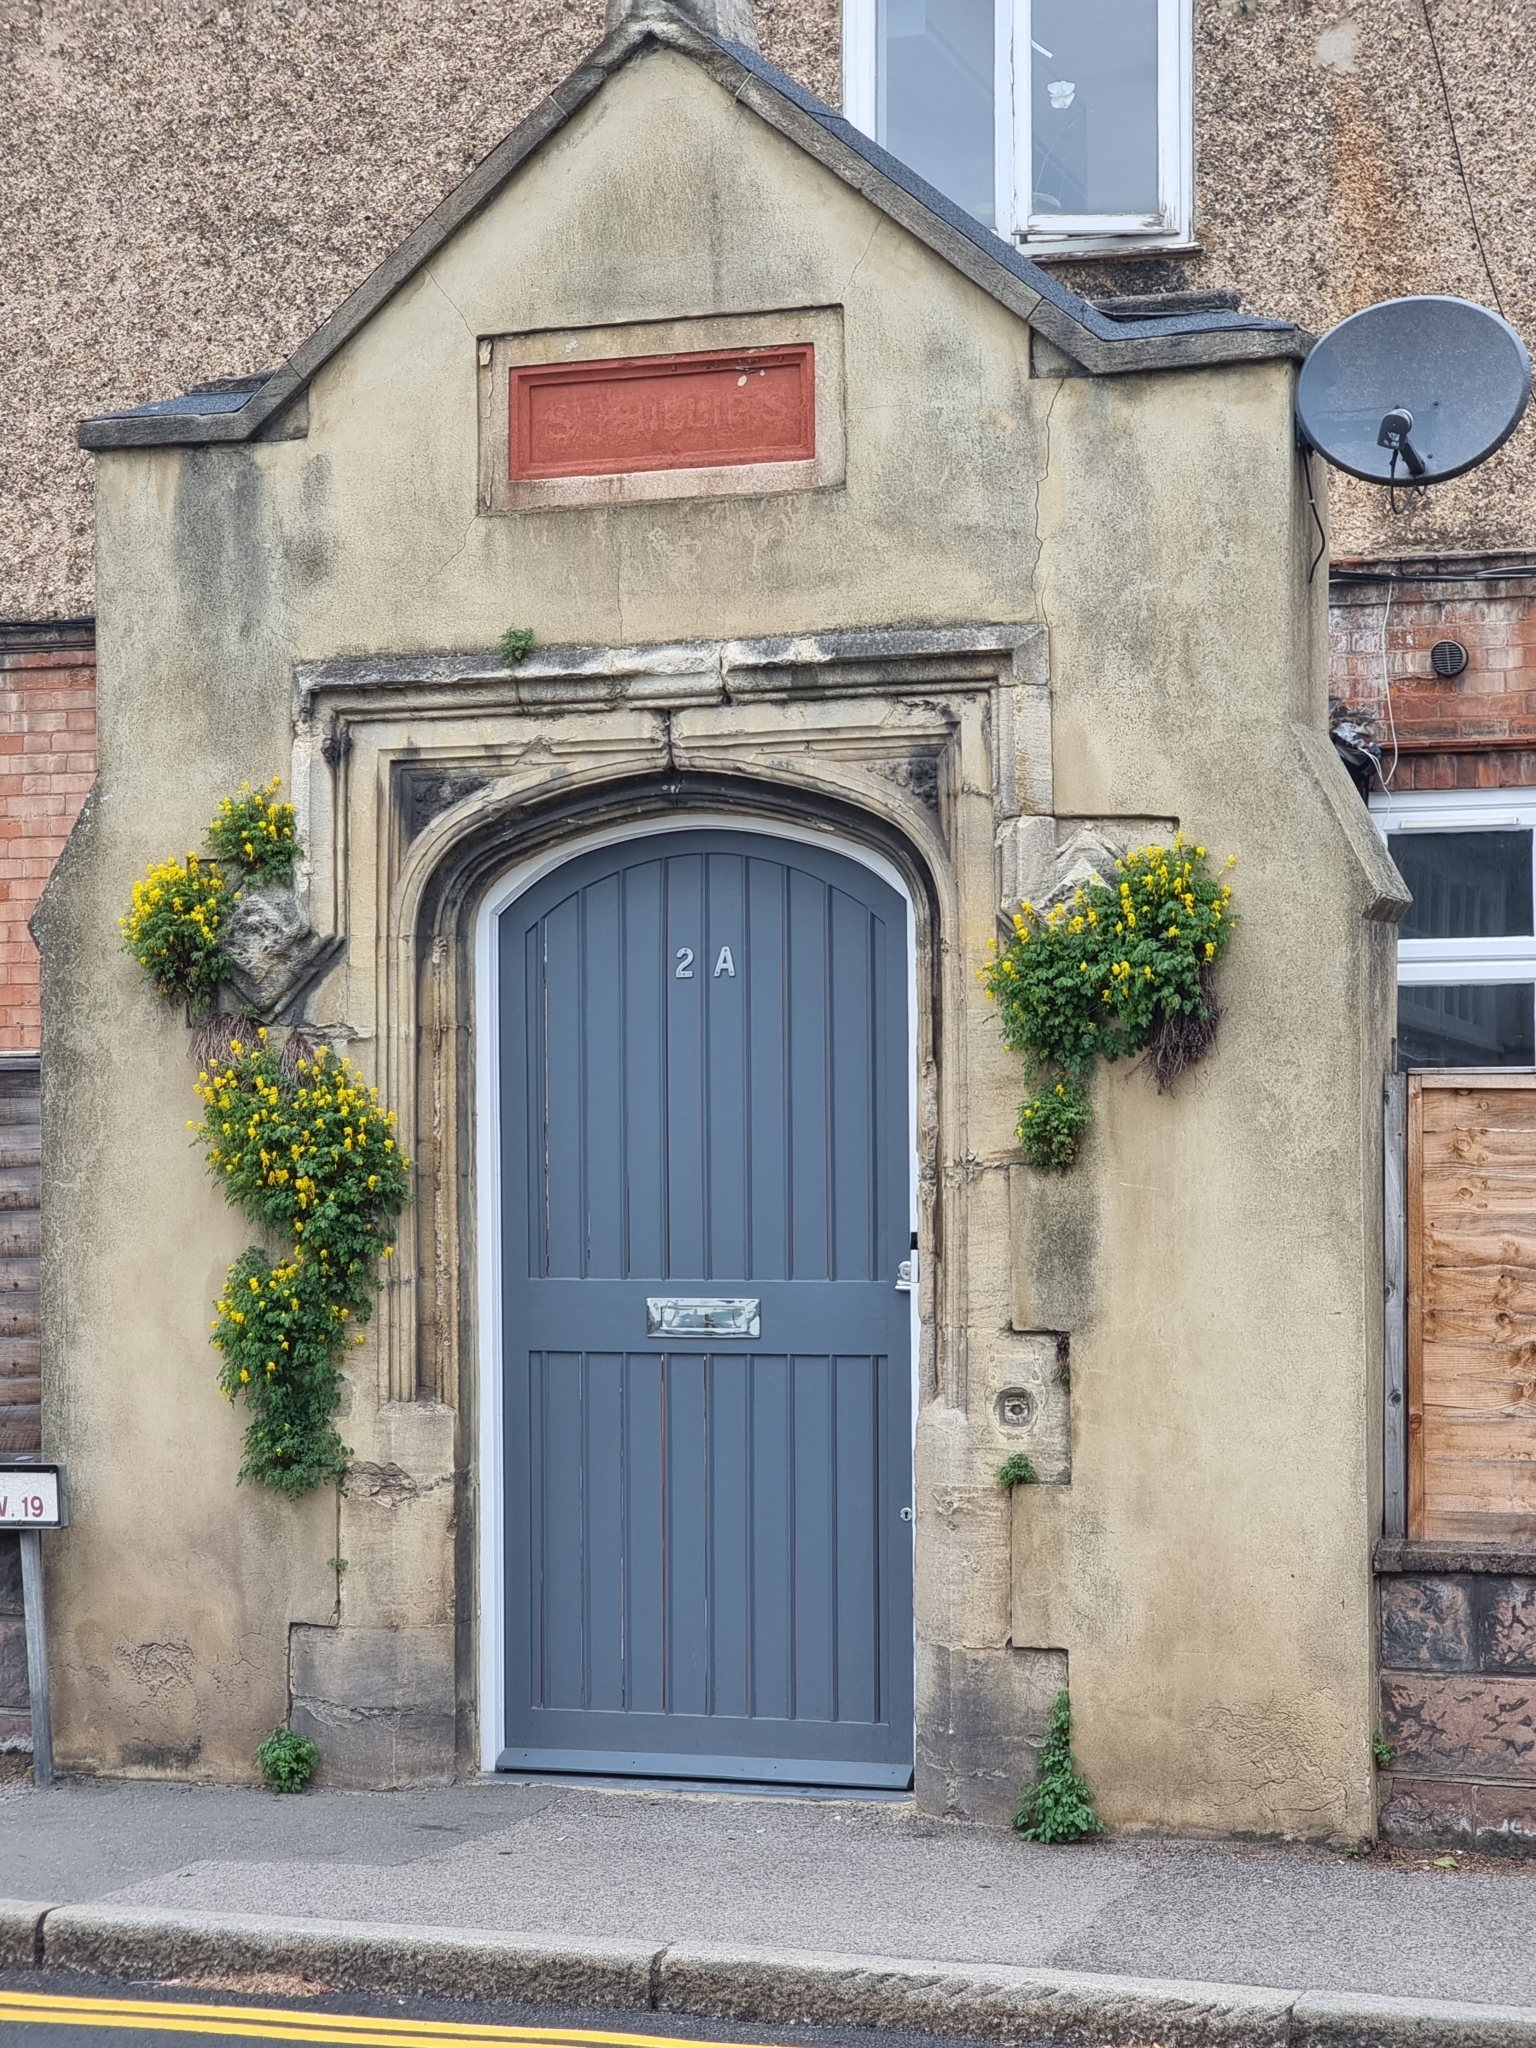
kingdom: Plantae
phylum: Tracheophyta
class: Magnoliopsida
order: Ranunculales
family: Papaveraceae
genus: Pseudofumaria
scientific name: Pseudofumaria lutea
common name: Yellow corydalis
